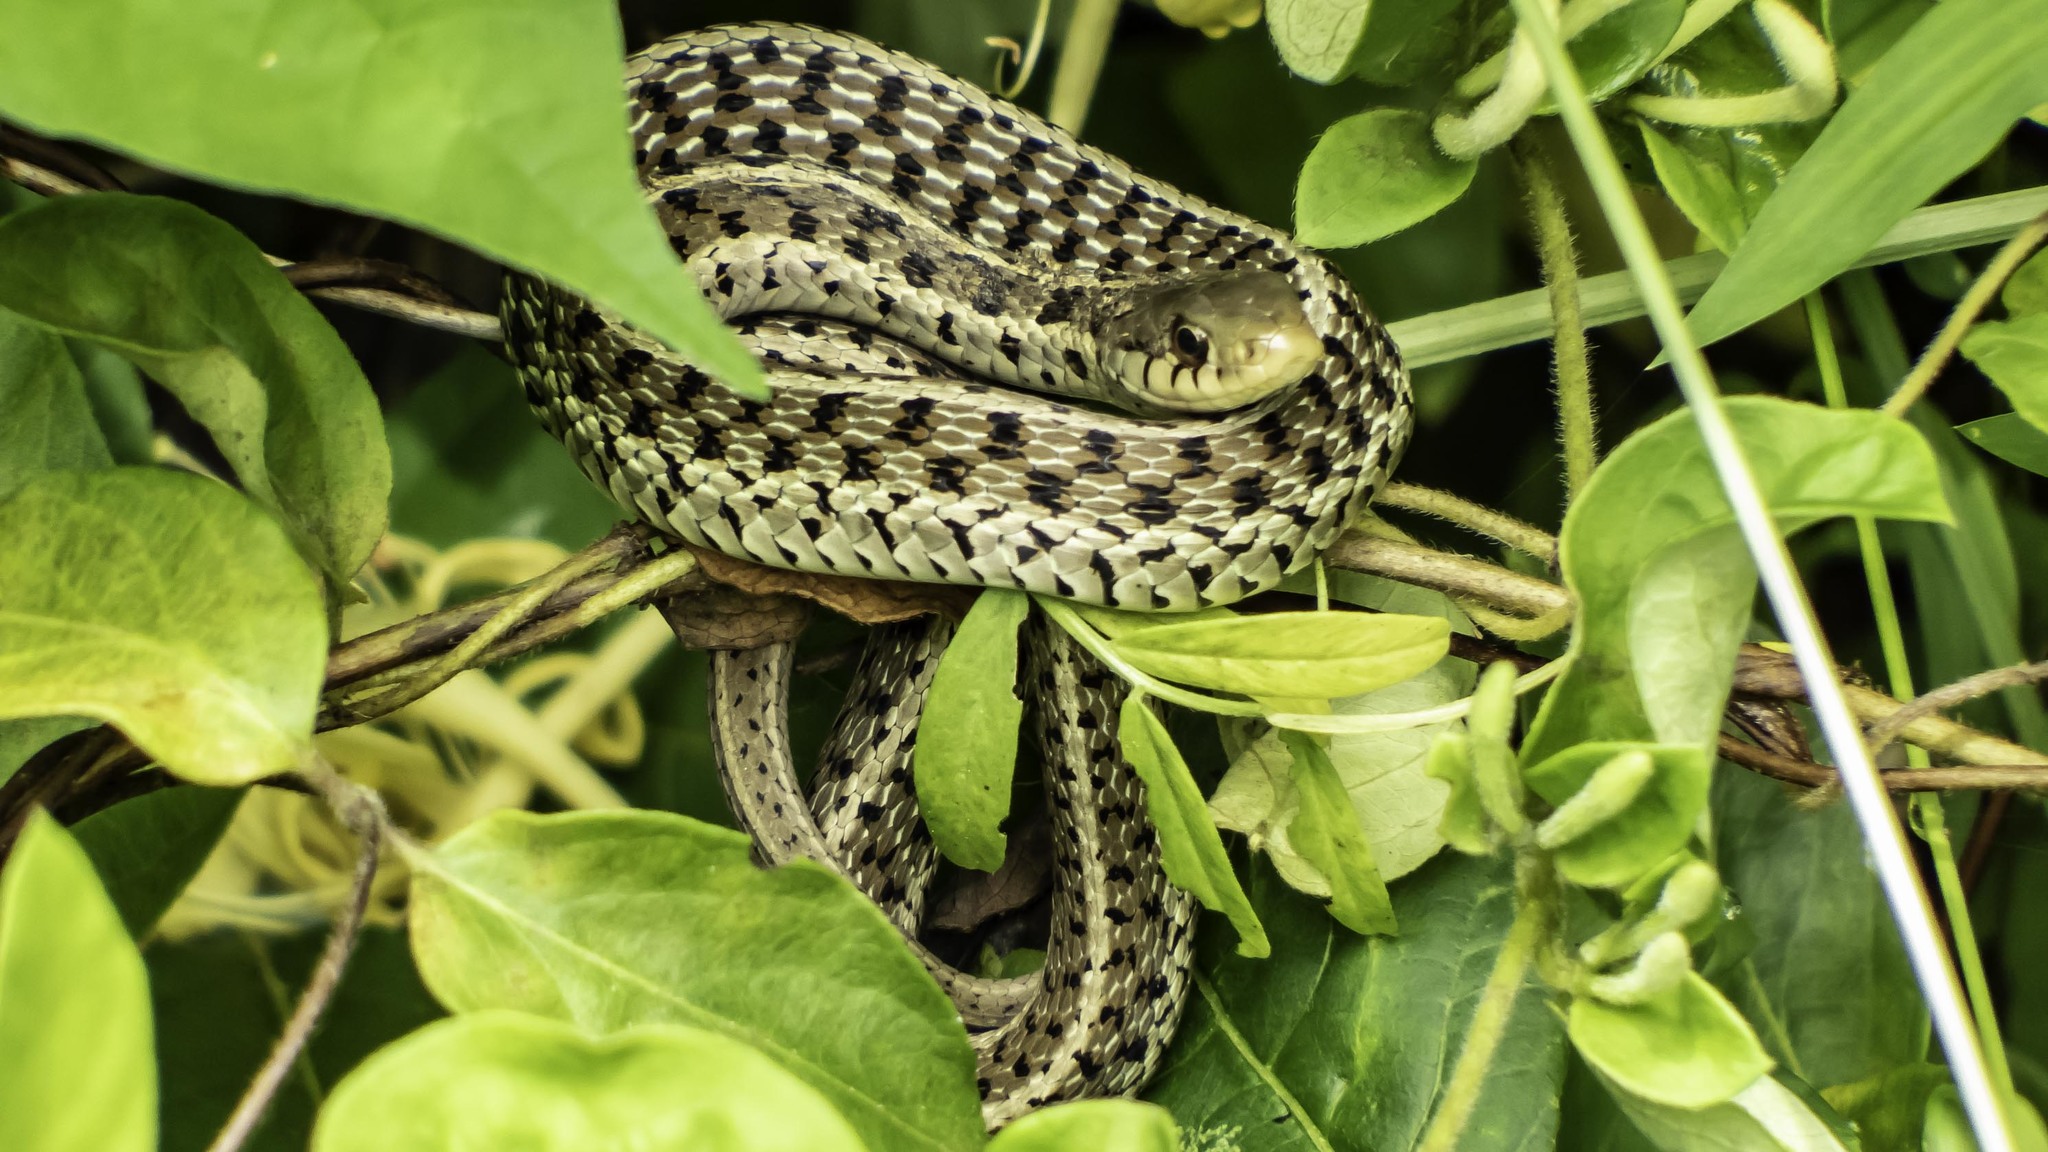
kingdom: Animalia
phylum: Chordata
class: Squamata
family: Colubridae
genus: Thamnophis
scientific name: Thamnophis sirtalis
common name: Common garter snake
